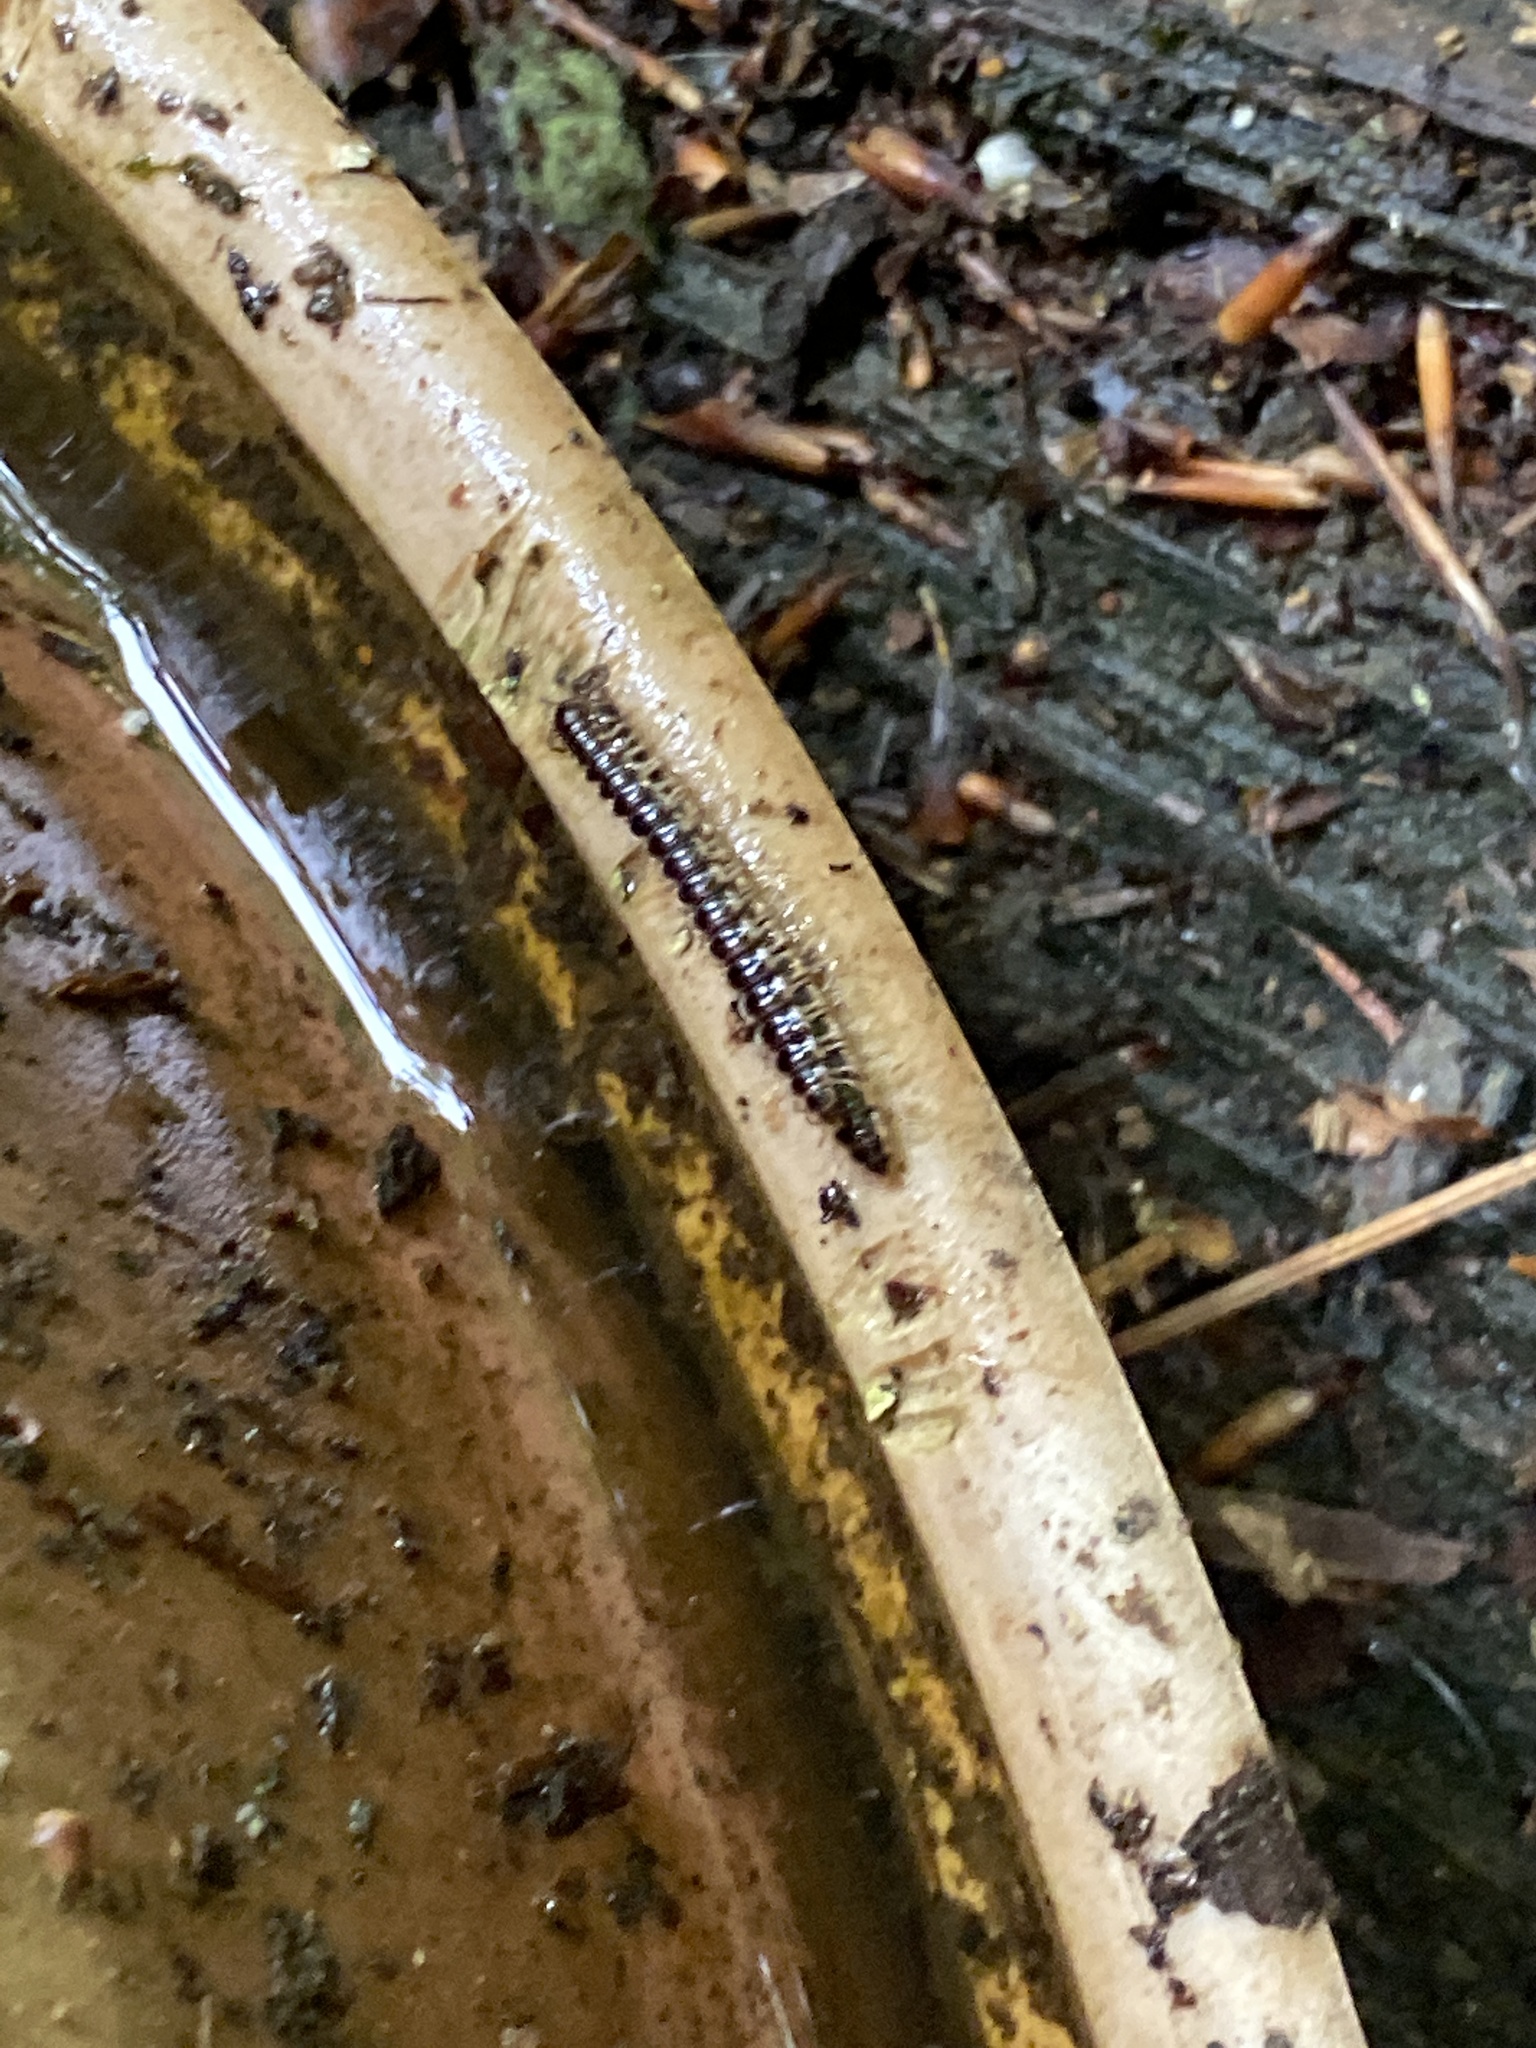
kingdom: Animalia
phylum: Arthropoda
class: Diplopoda
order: Polydesmida
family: Paradoxosomatidae
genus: Oxidus
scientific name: Oxidus gracilis
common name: Greenhouse millipede
